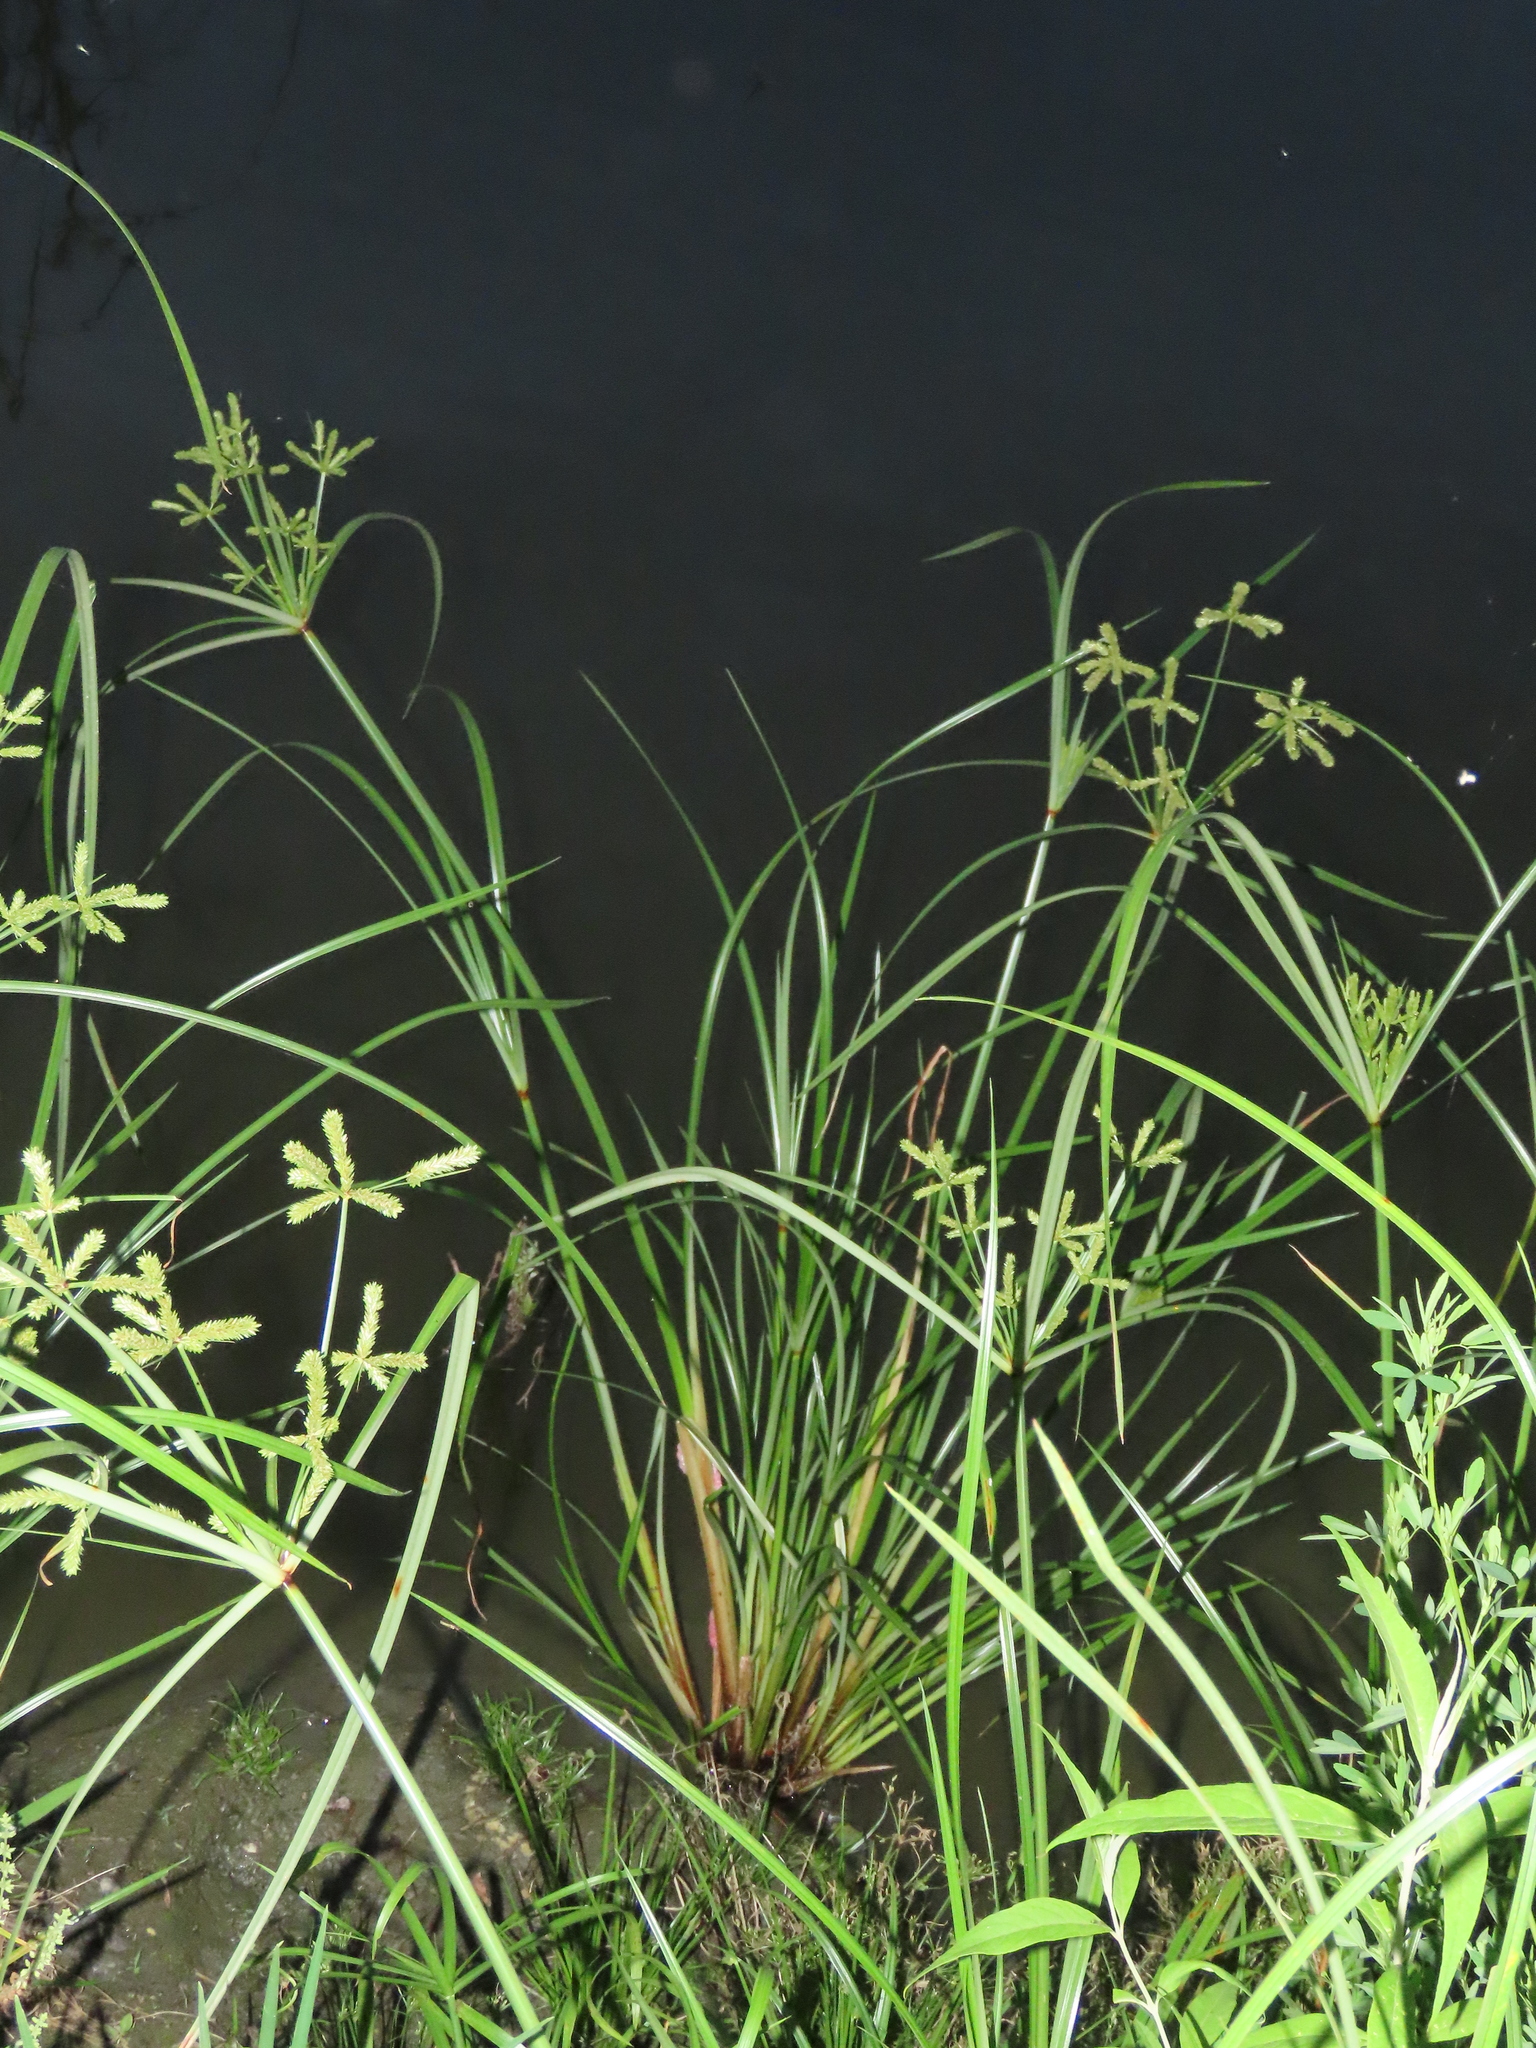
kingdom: Plantae
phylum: Tracheophyta
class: Liliopsida
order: Poales
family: Cyperaceae
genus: Cyperus
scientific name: Cyperus imbricatus
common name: Shingle flatsedge
